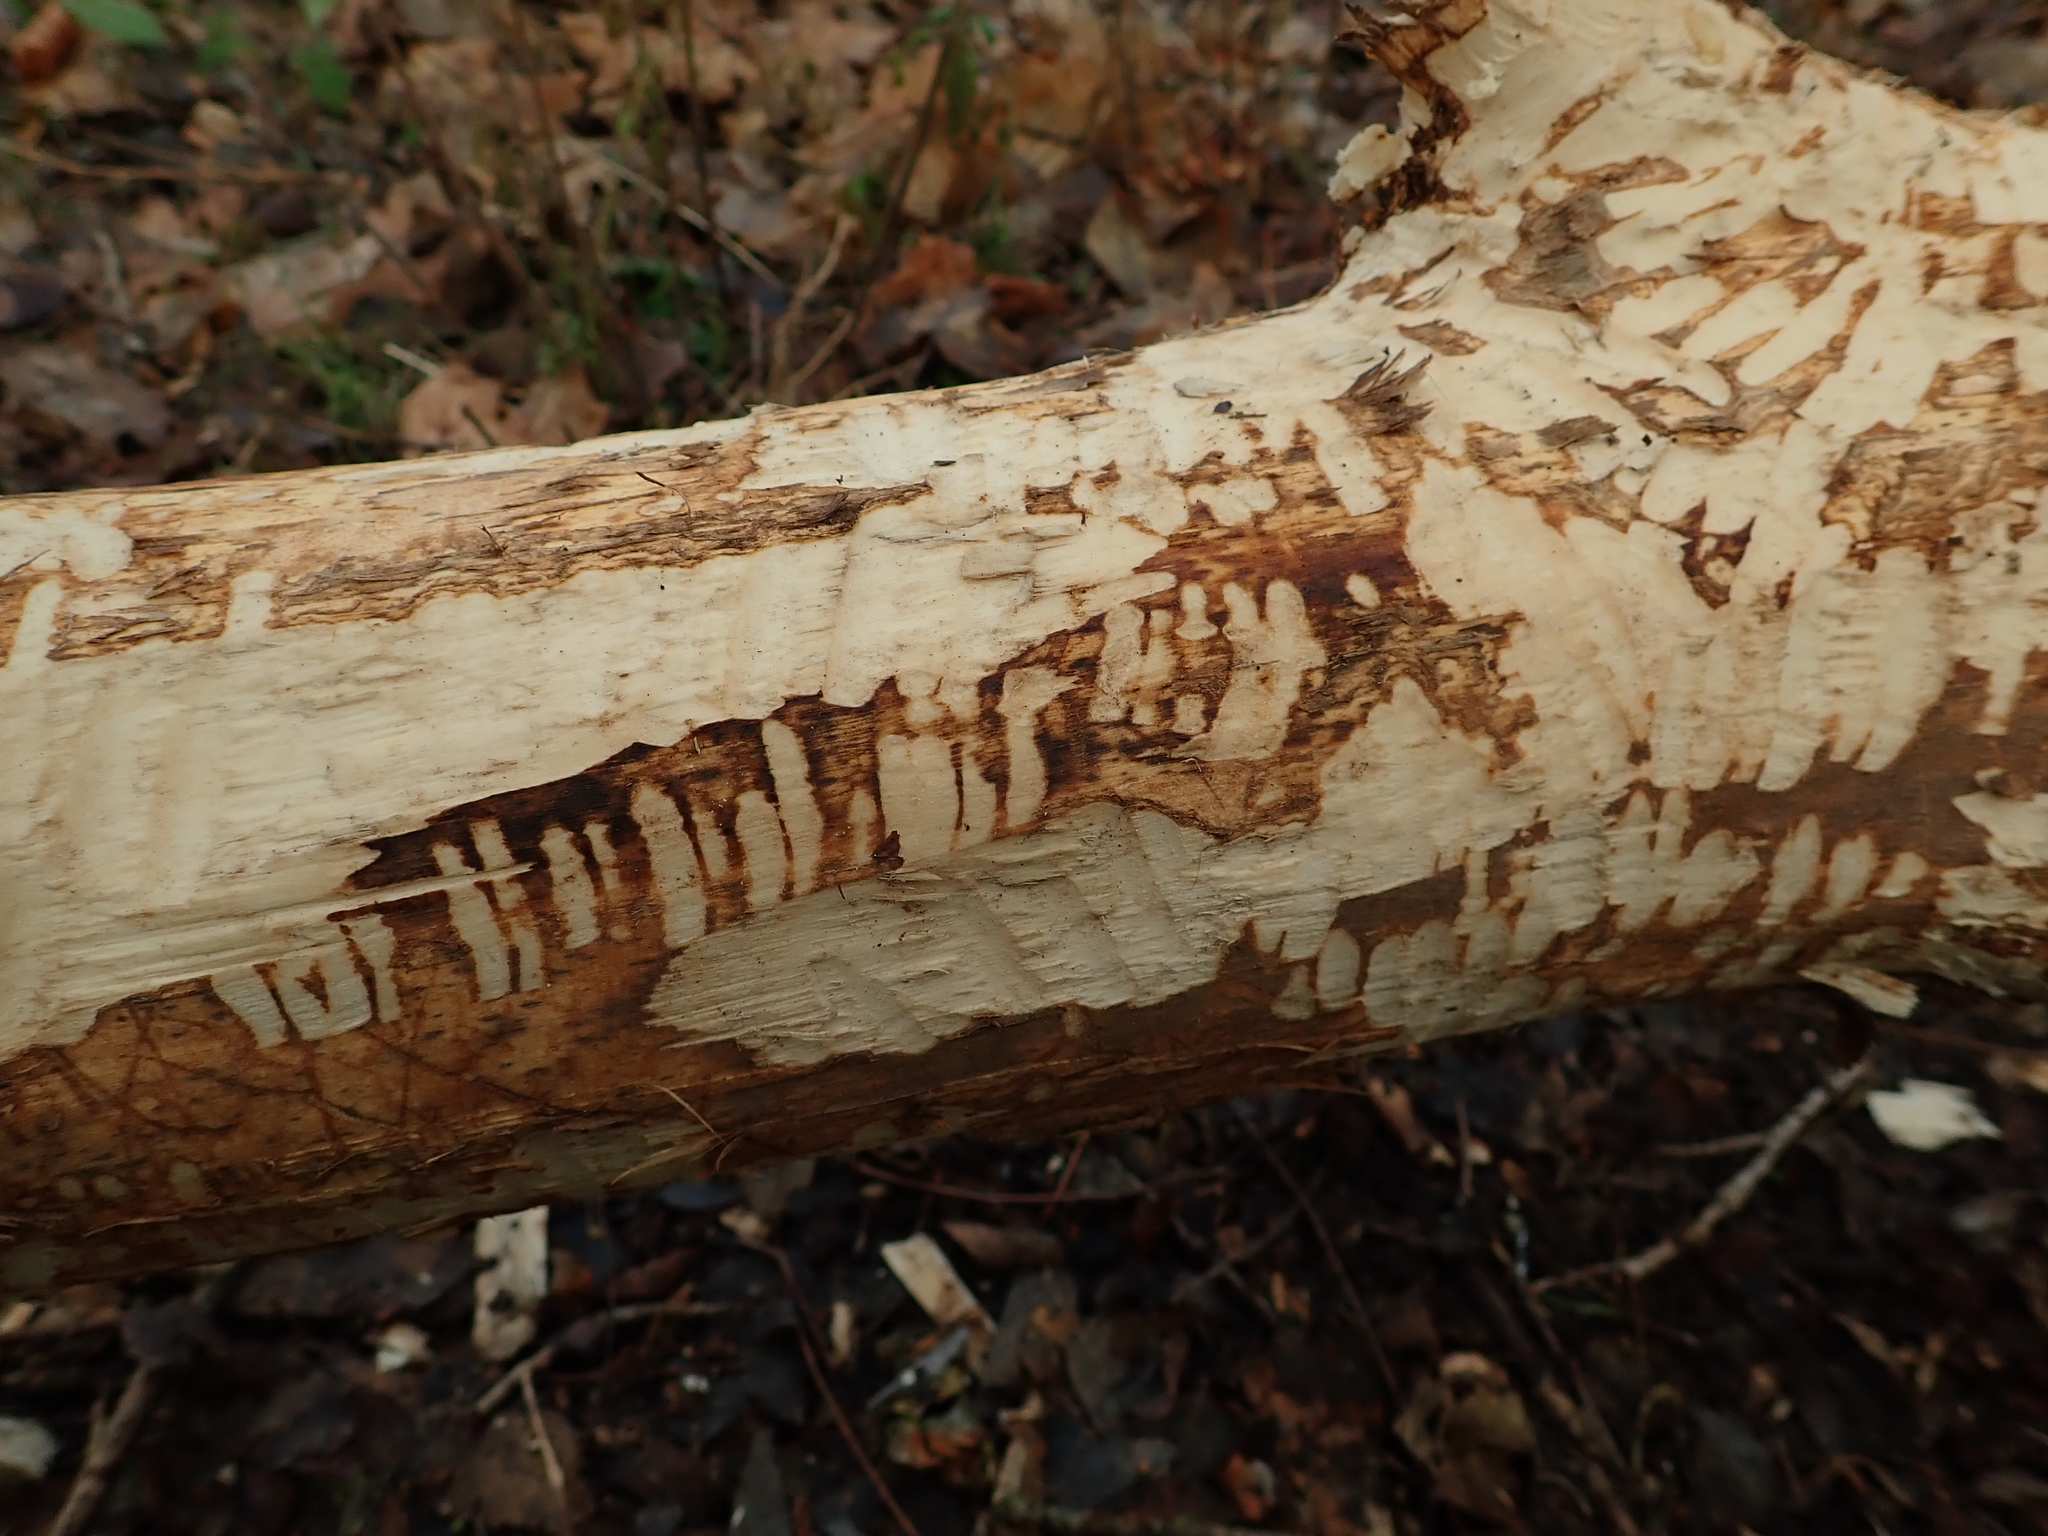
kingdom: Animalia
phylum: Chordata
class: Mammalia
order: Rodentia
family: Castoridae
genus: Castor
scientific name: Castor fiber
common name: Eurasian beaver
